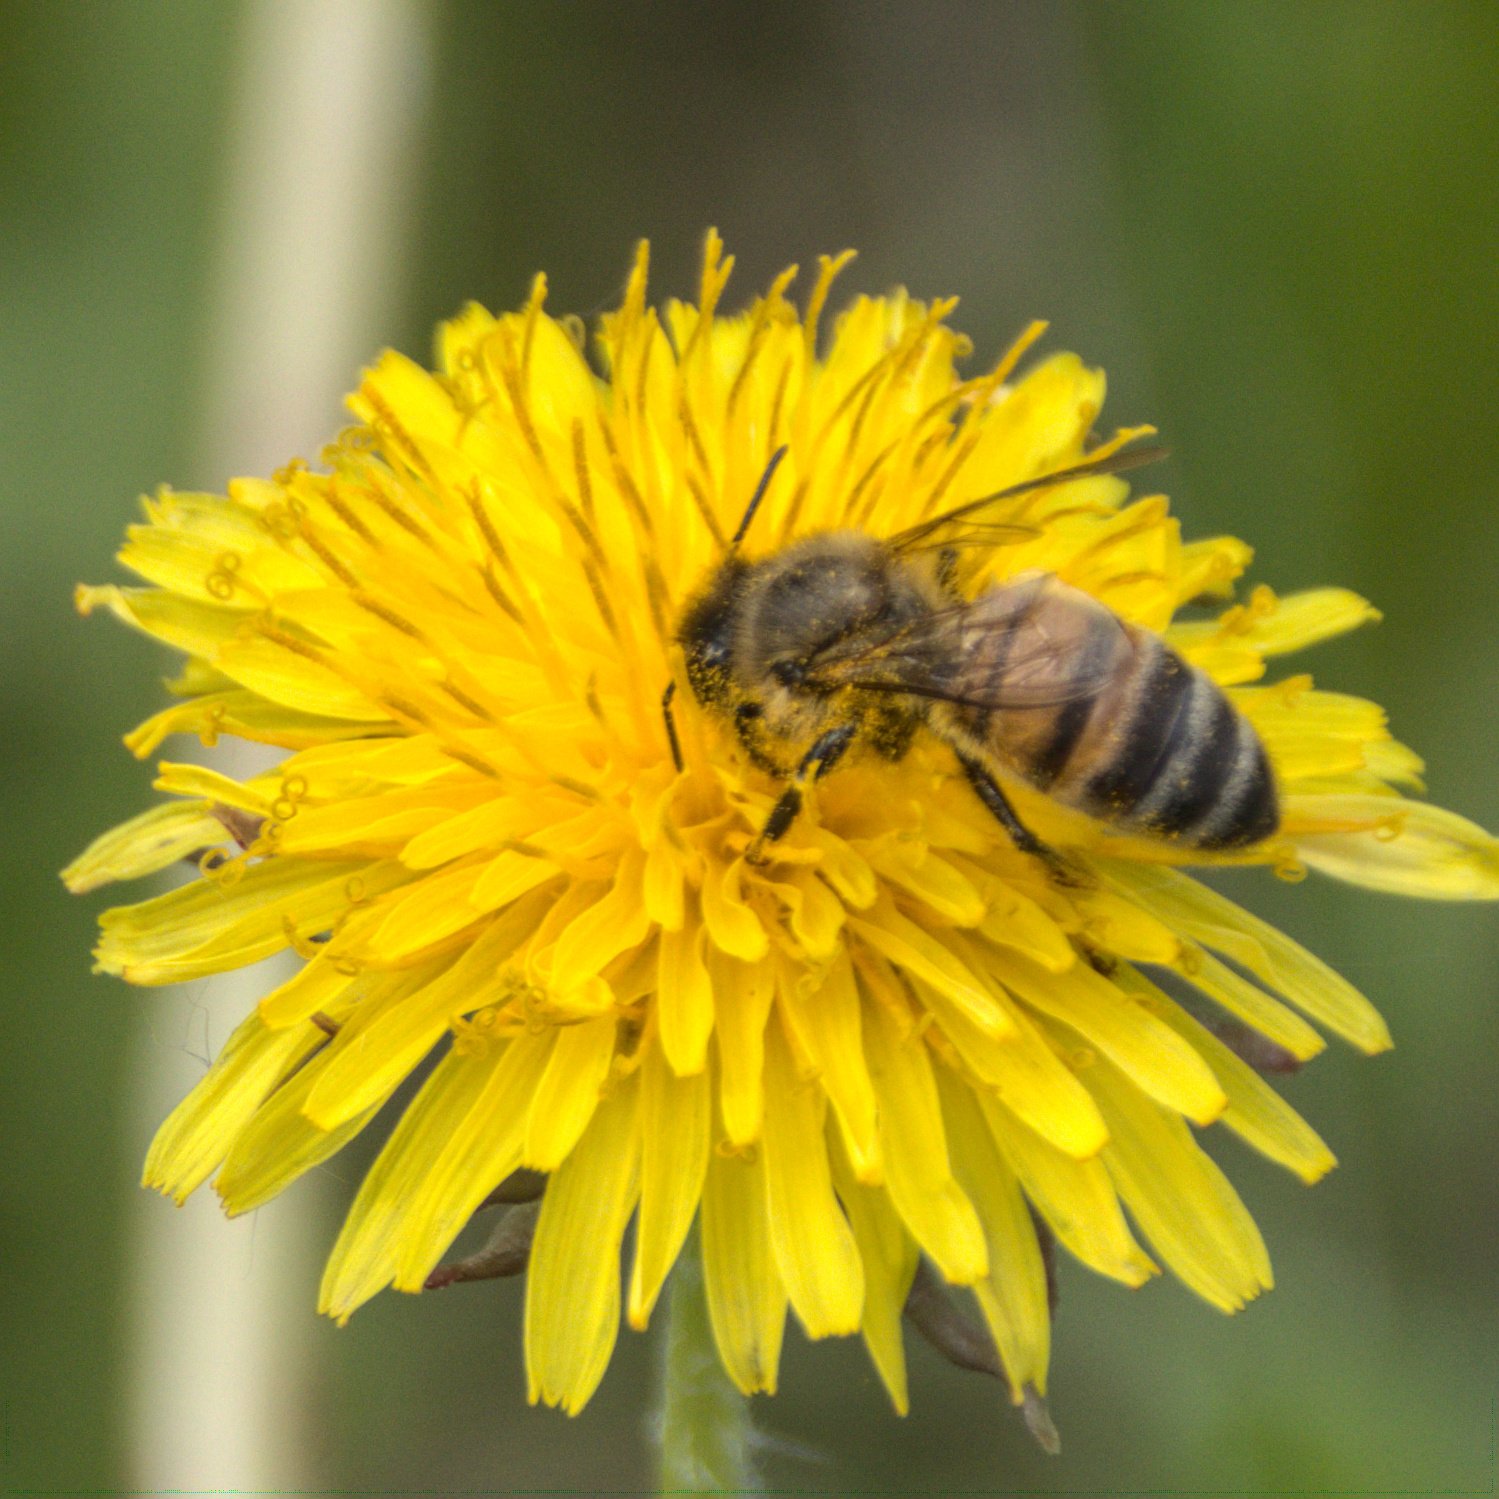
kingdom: Animalia
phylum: Arthropoda
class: Insecta
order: Hymenoptera
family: Apidae
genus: Apis
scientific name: Apis mellifera
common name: Honey bee
